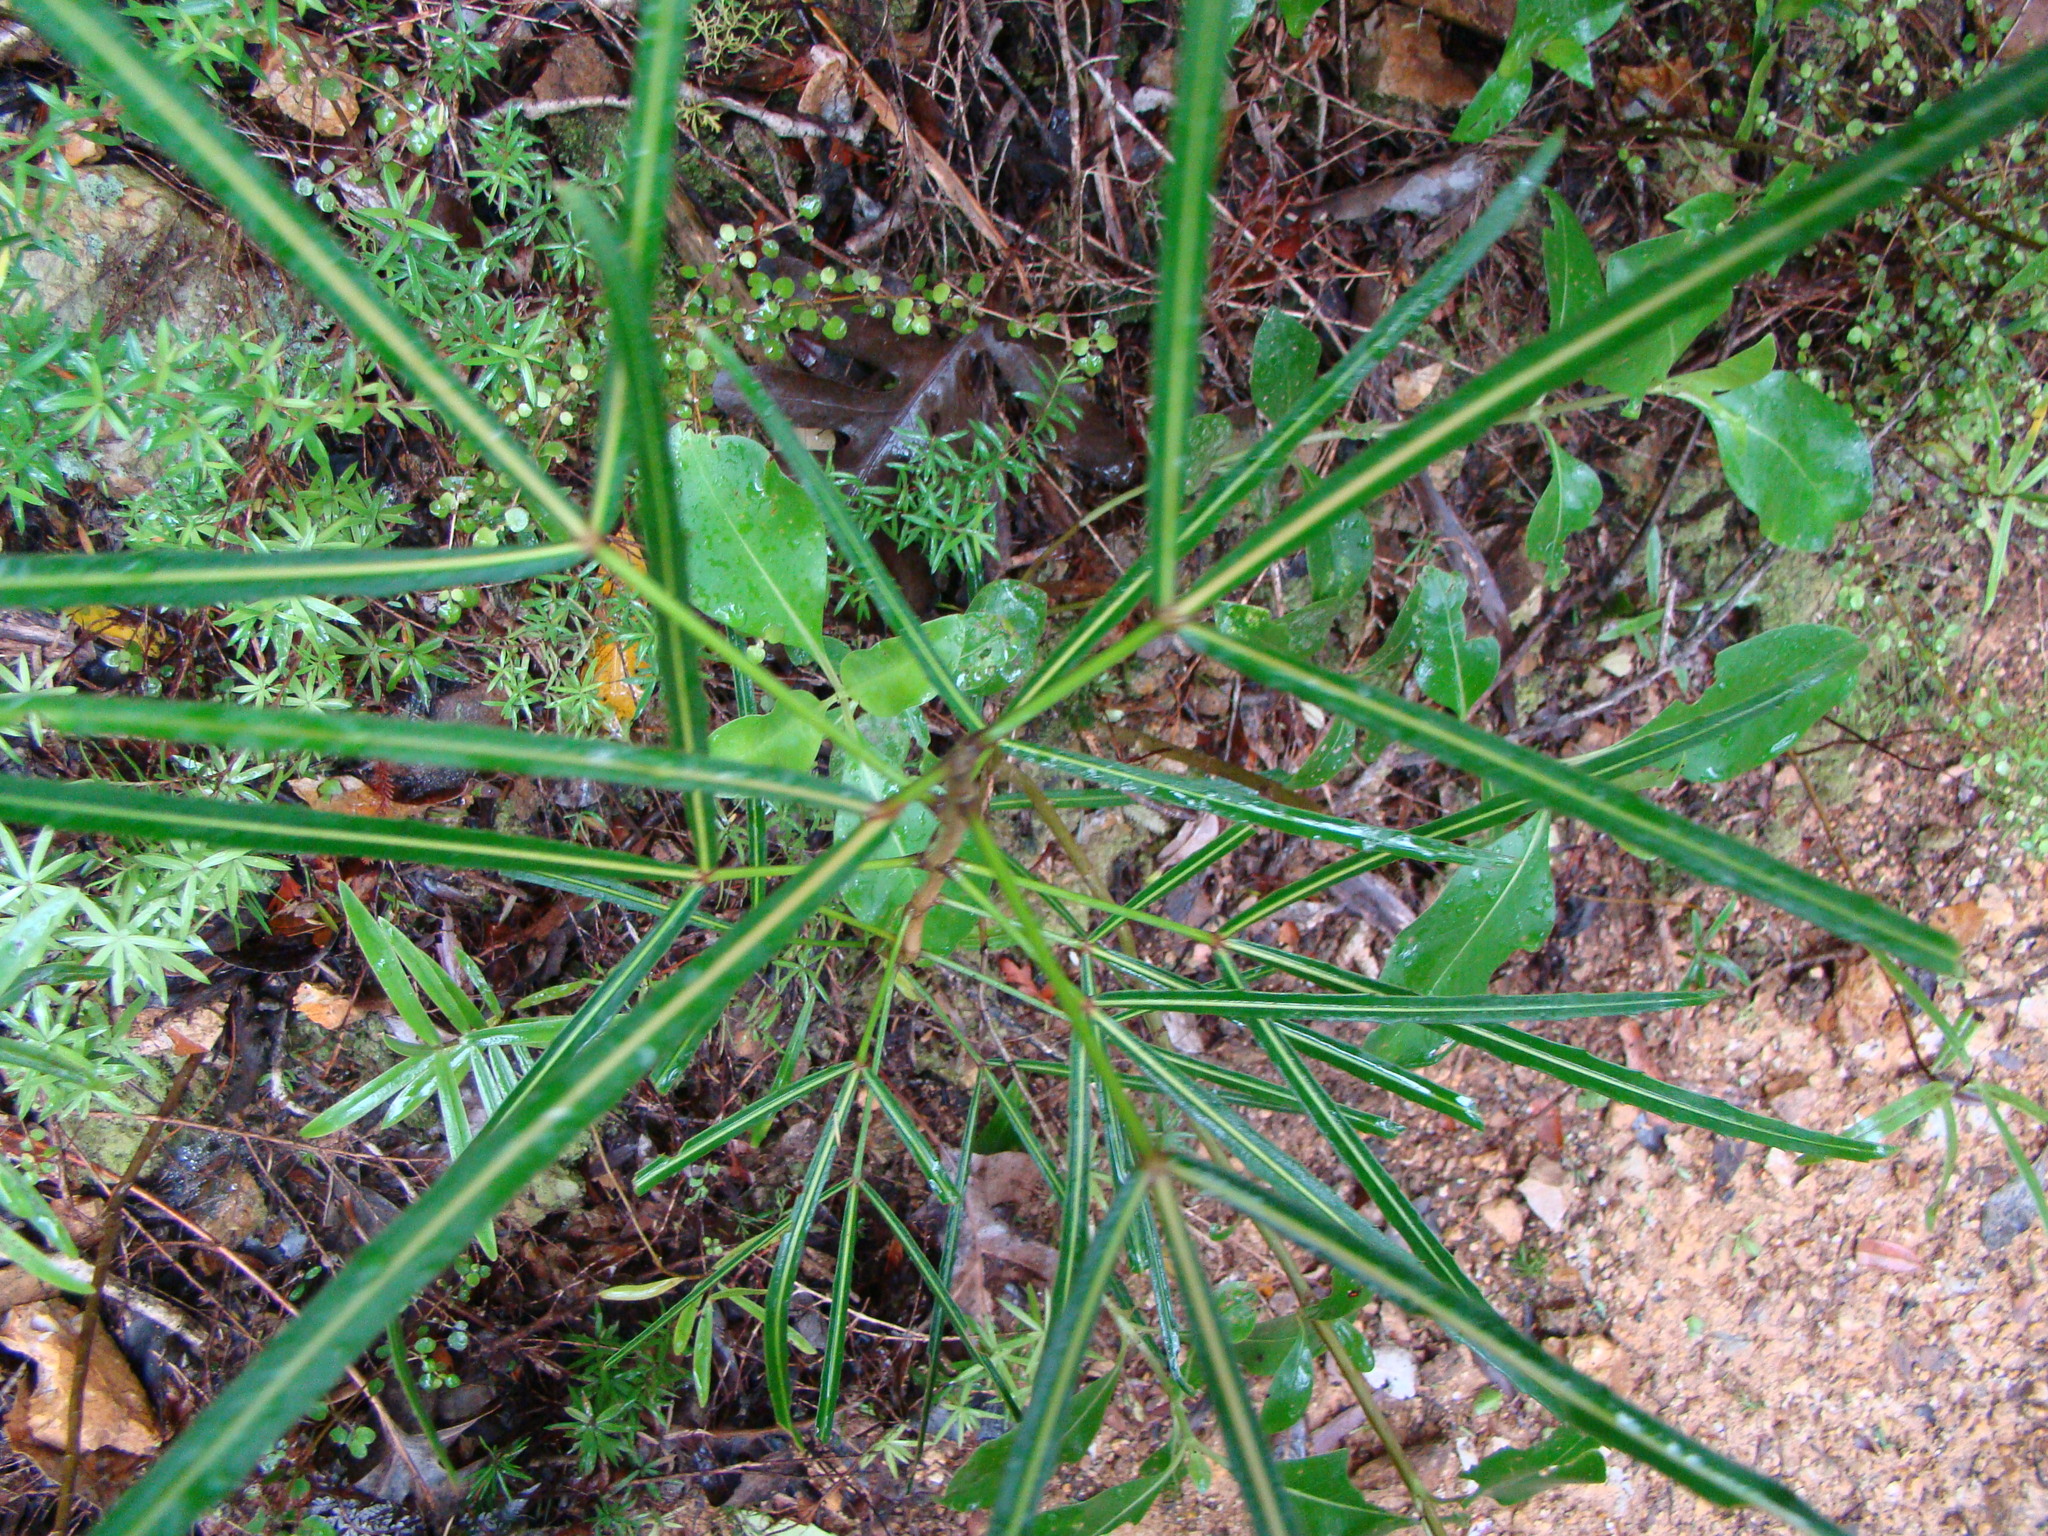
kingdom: Plantae
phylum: Tracheophyta
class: Magnoliopsida
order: Apiales
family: Araliaceae
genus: Pseudopanax
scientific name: Pseudopanax
